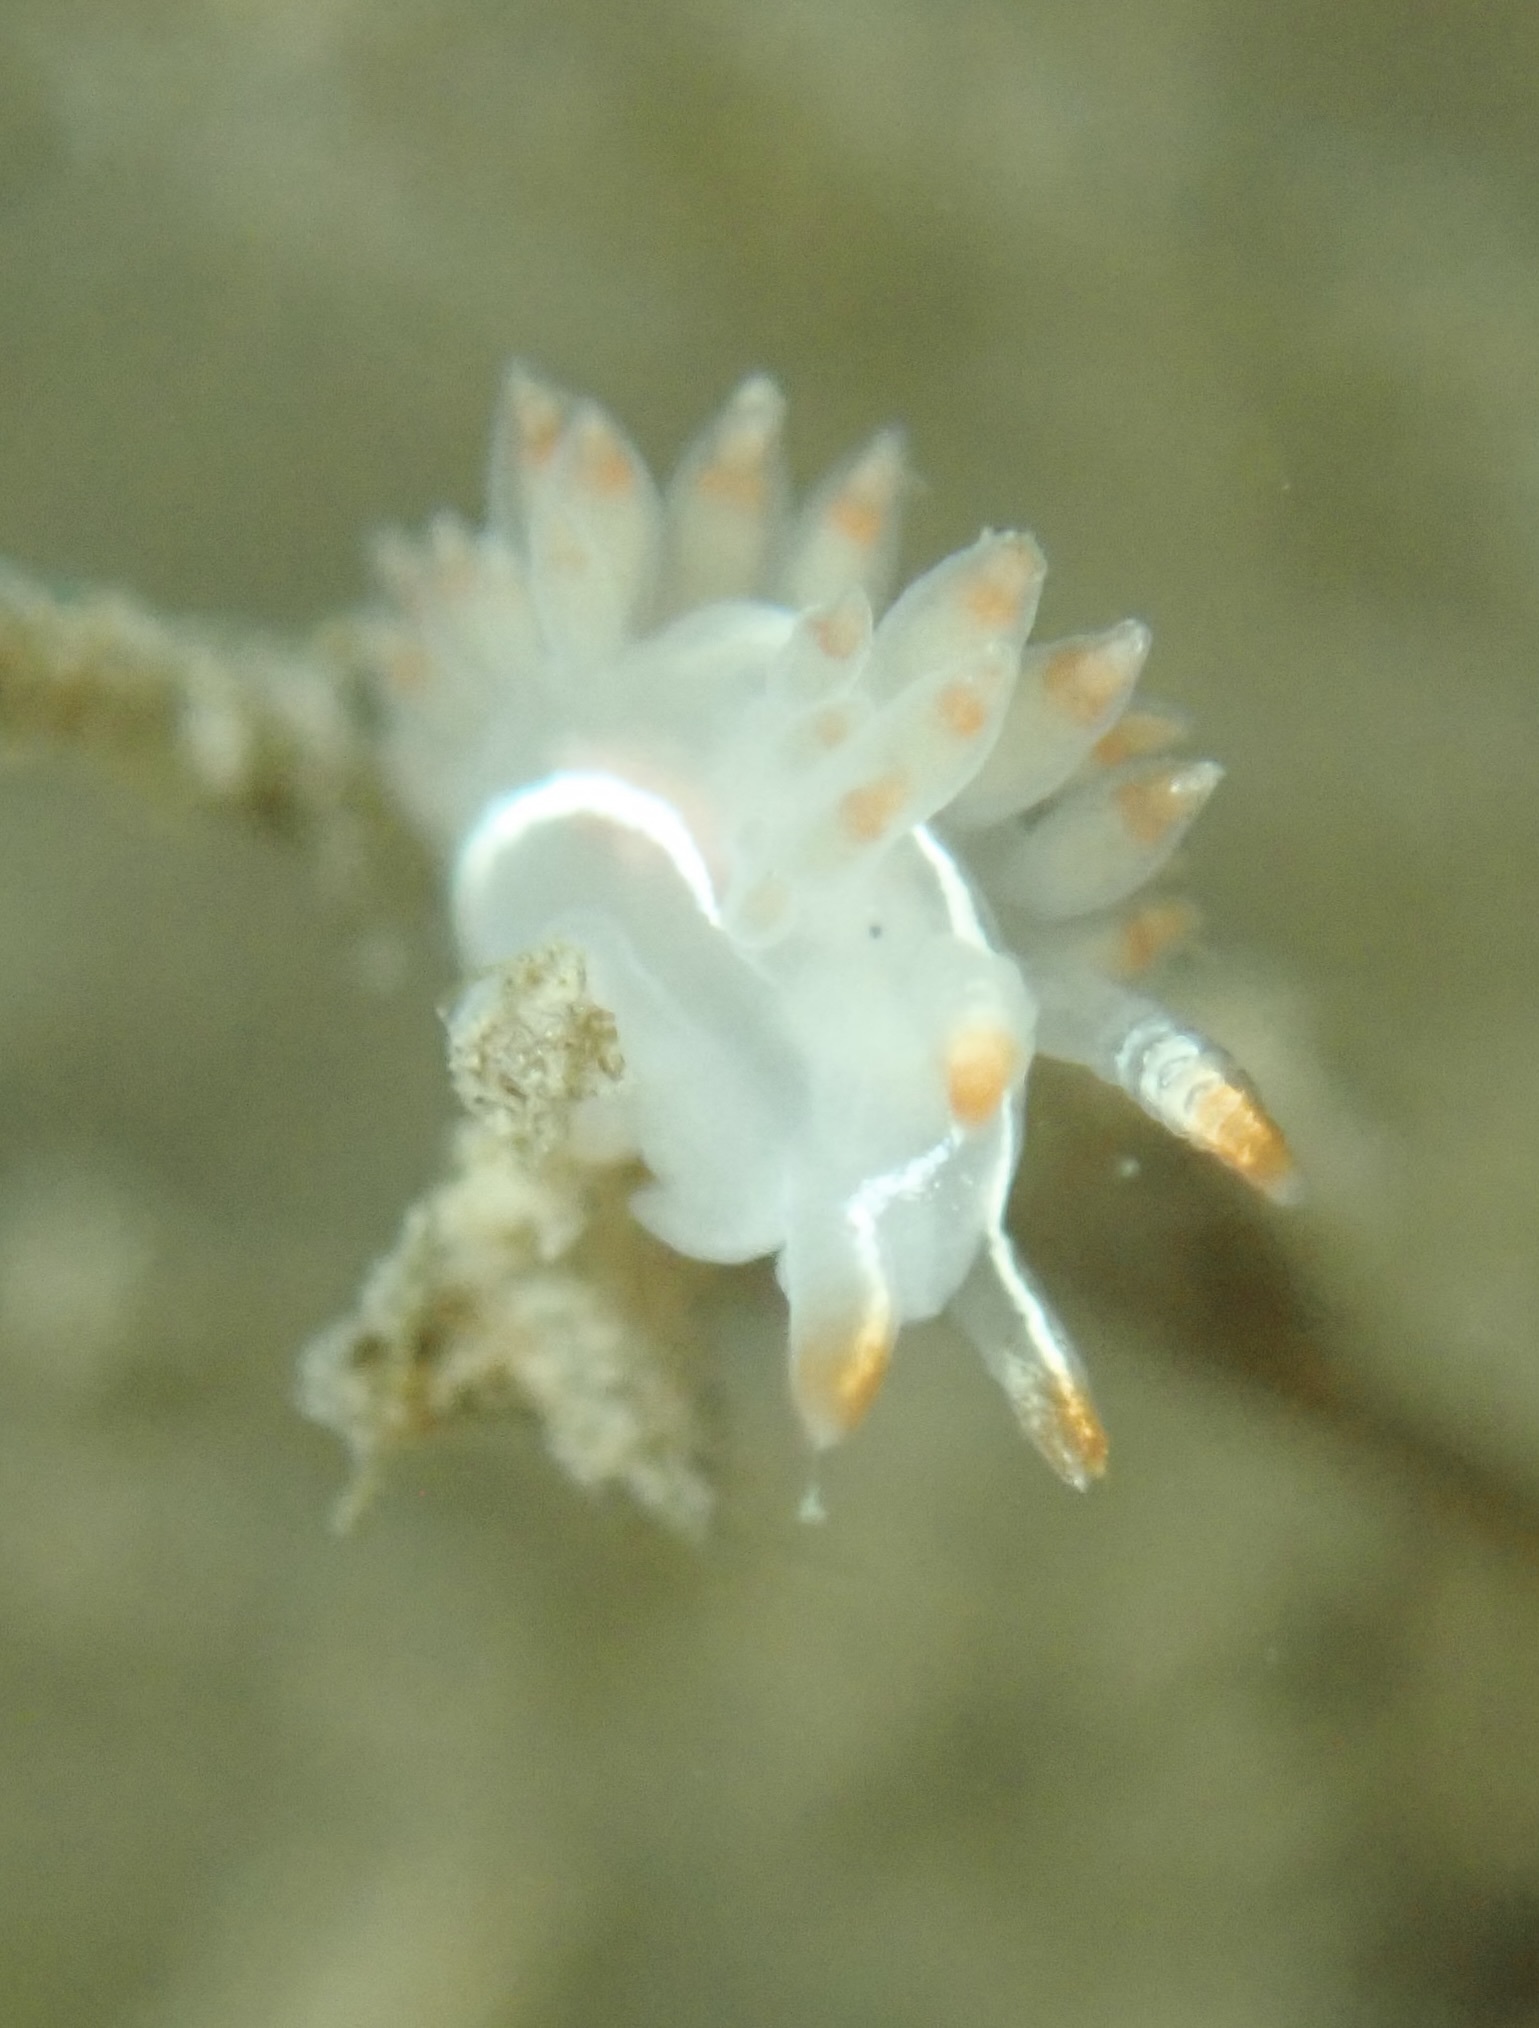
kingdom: Animalia
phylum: Mollusca
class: Gastropoda
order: Nudibranchia
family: Coryphellidae
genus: Coryphella
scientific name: Coryphella trilineata
